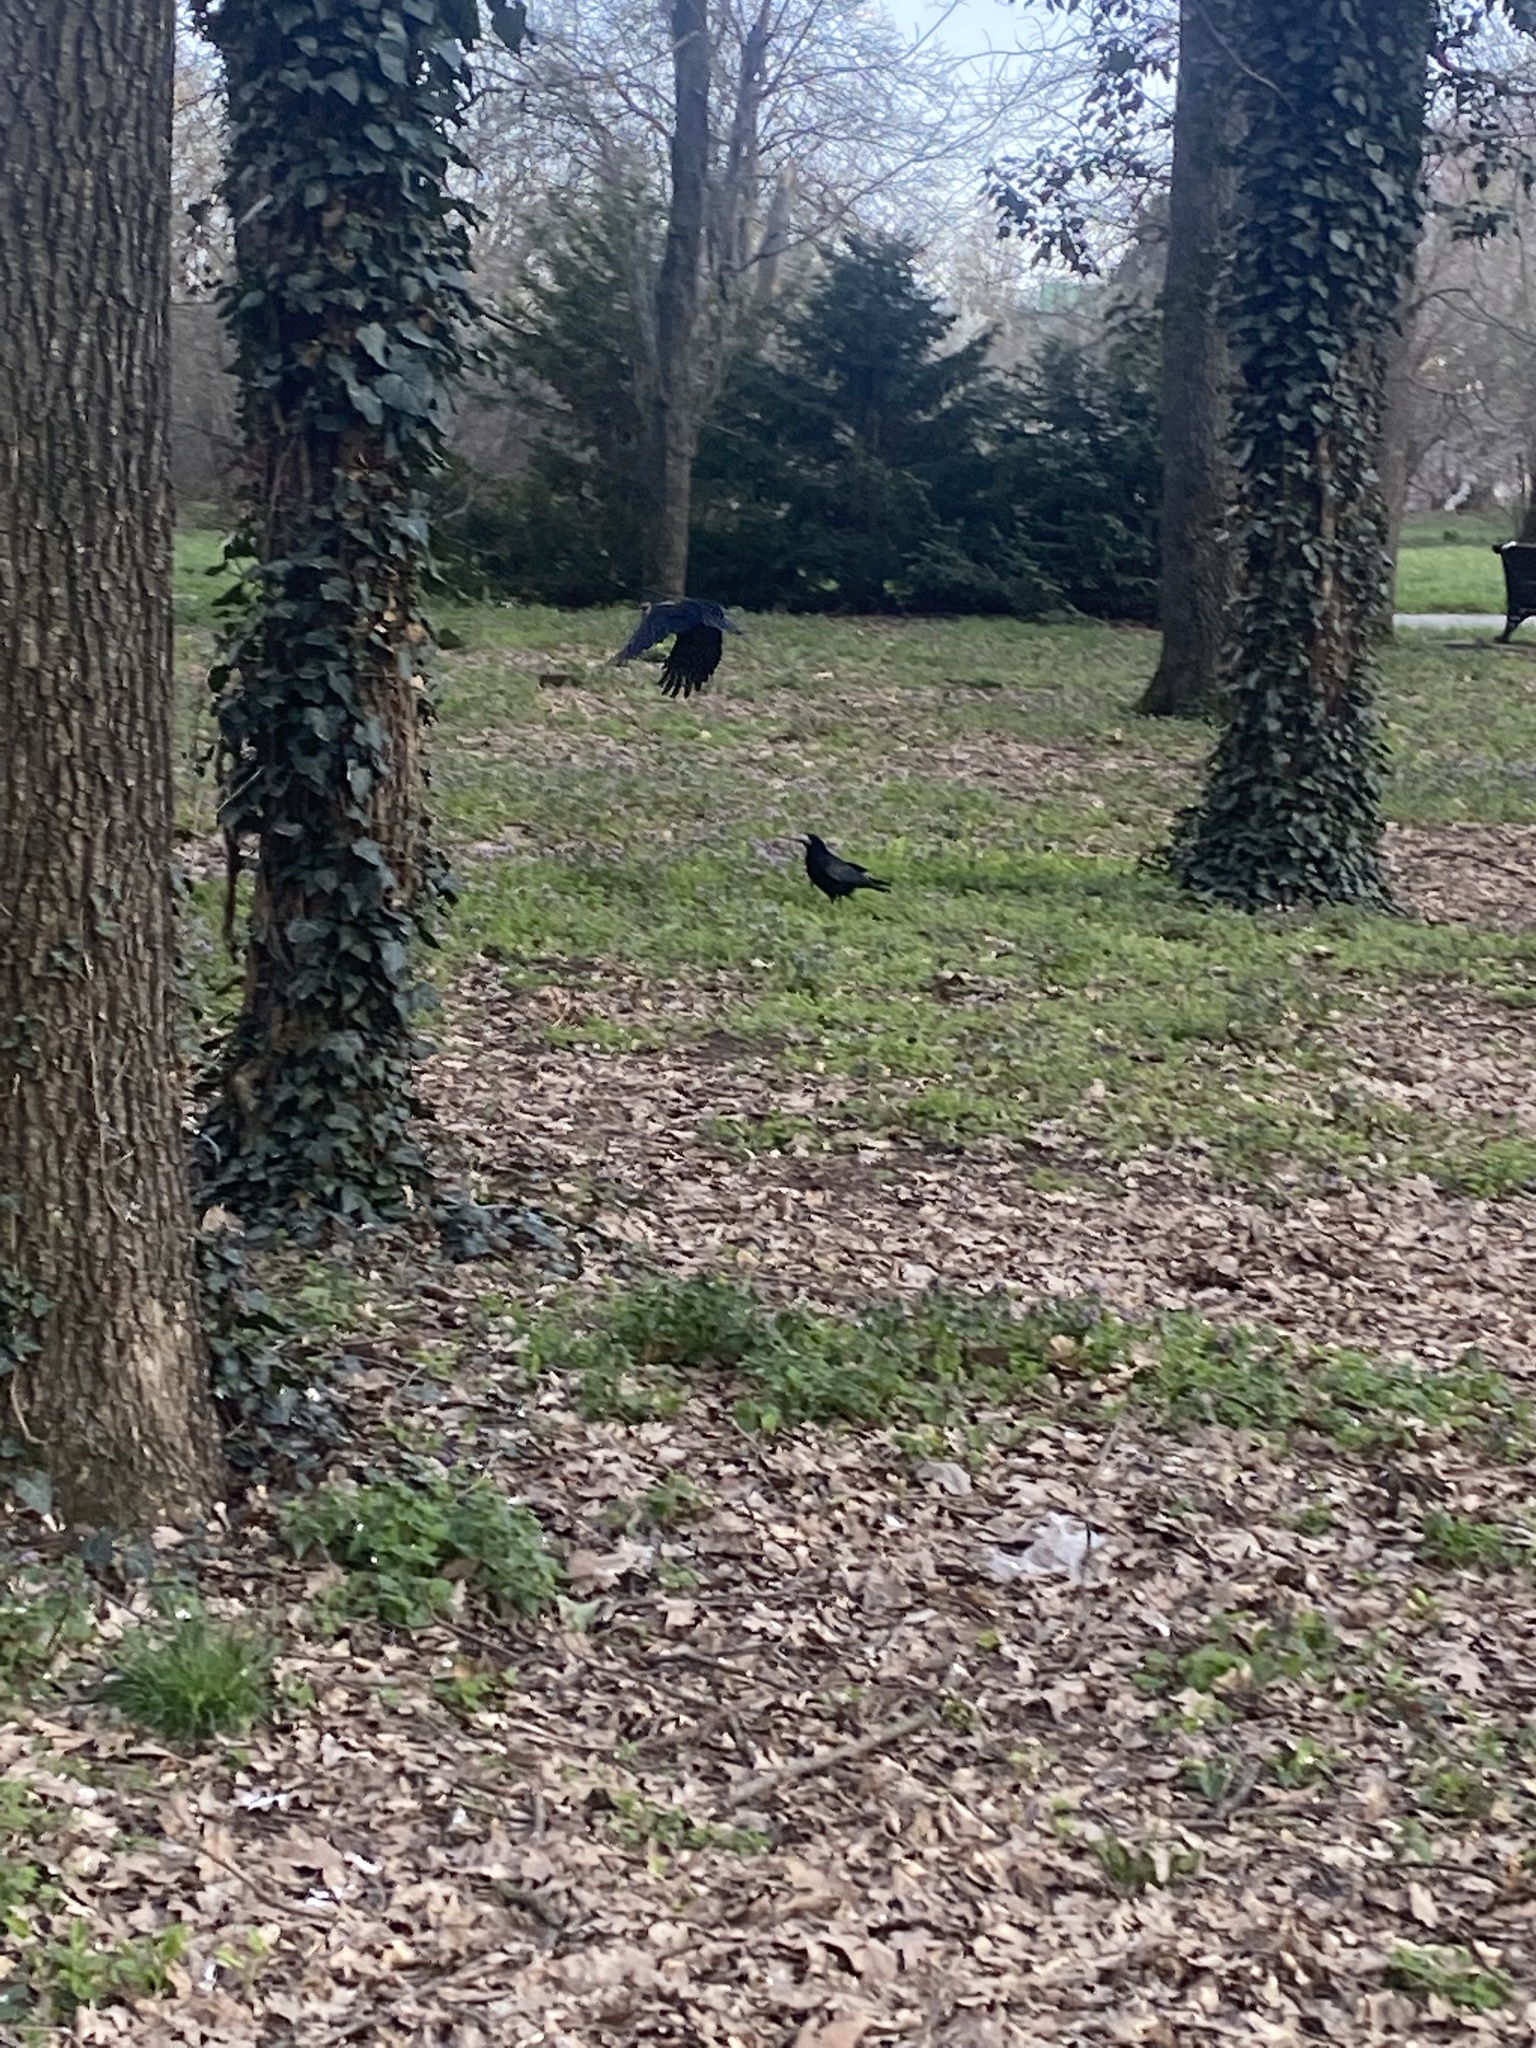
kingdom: Animalia
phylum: Chordata
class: Aves
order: Passeriformes
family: Corvidae
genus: Corvus
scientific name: Corvus frugilegus
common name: Rook
